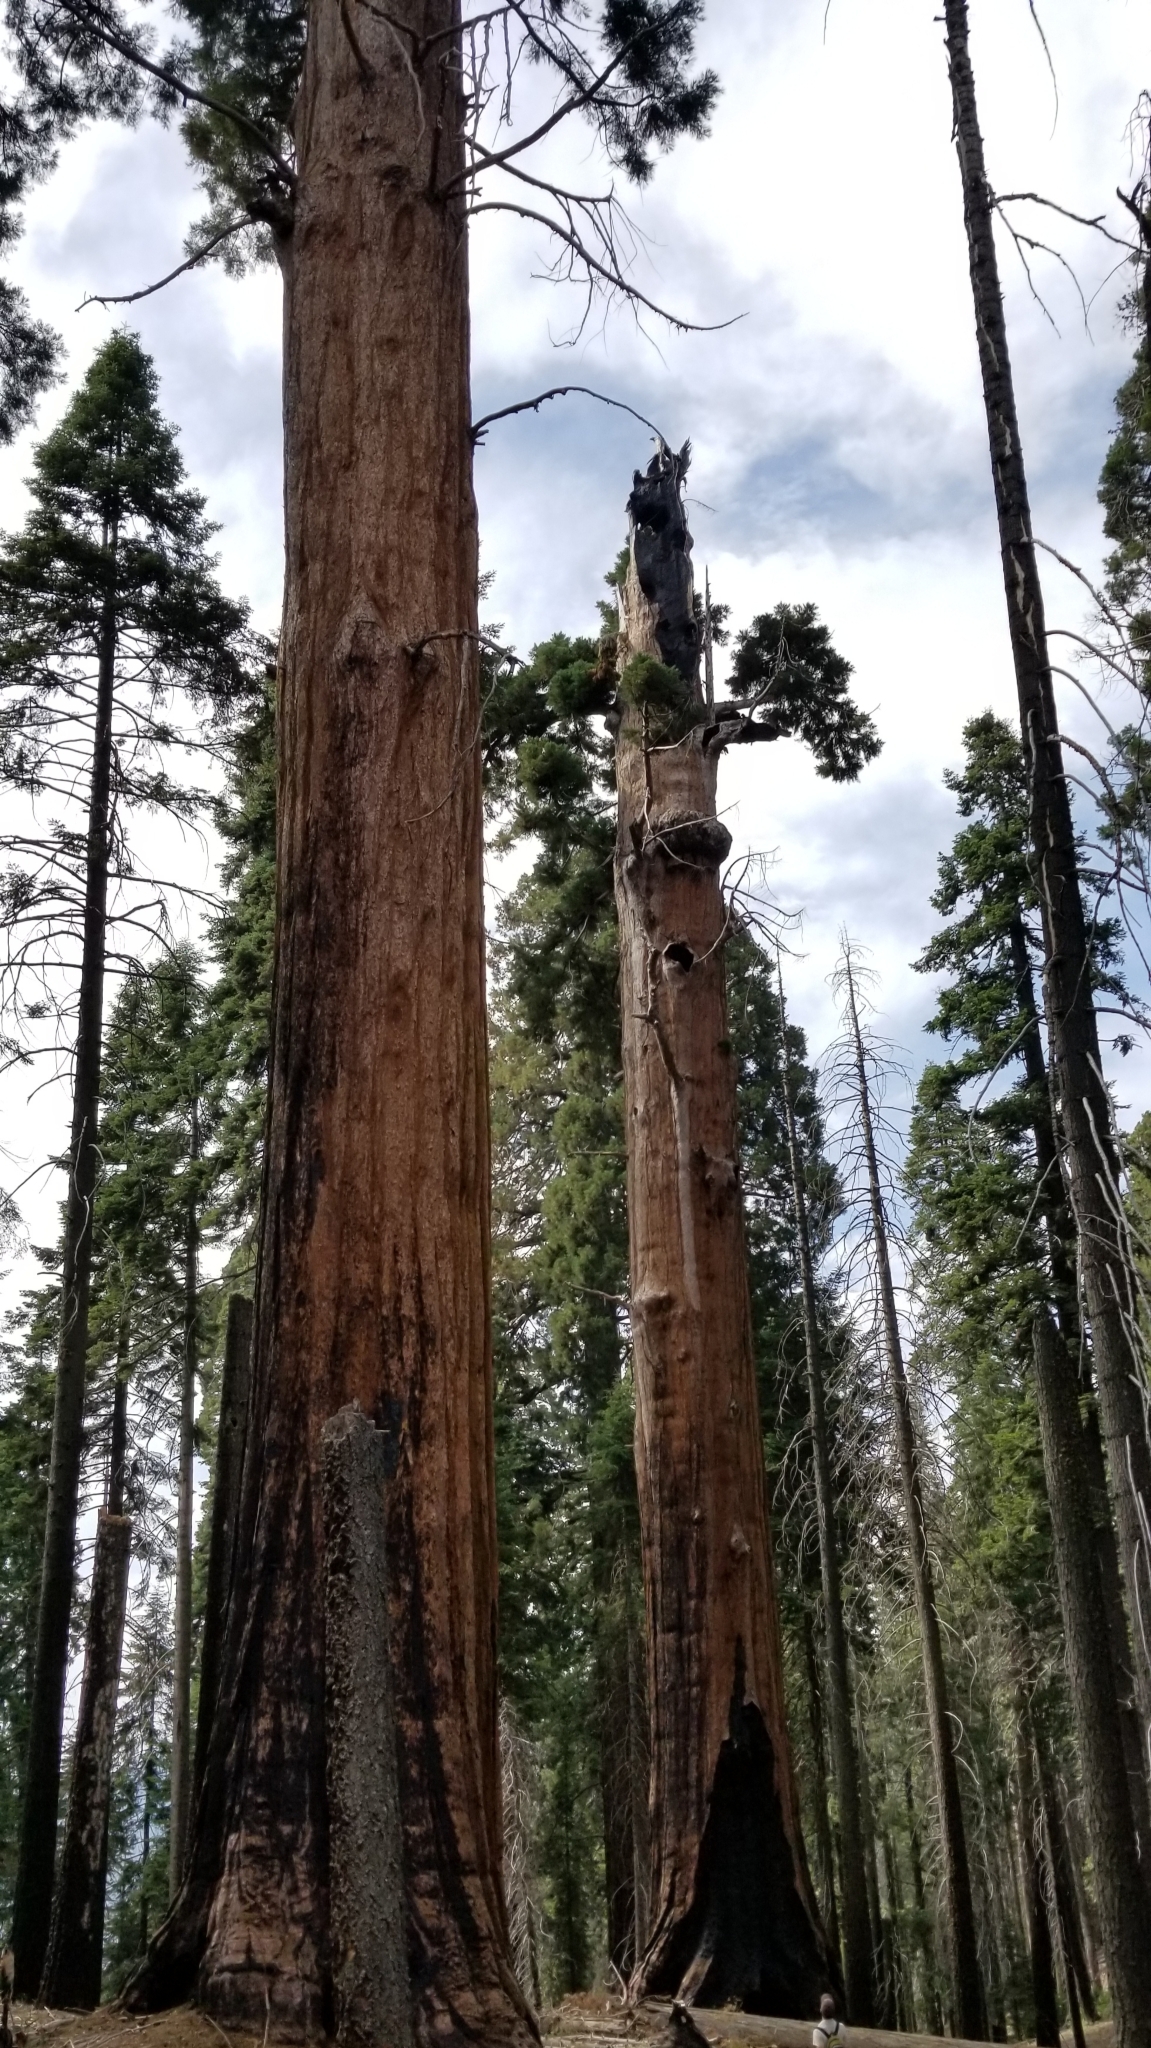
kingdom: Plantae
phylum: Tracheophyta
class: Pinopsida
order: Pinales
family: Cupressaceae
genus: Sequoiadendron
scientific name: Sequoiadendron giganteum
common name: Wellingtonia
